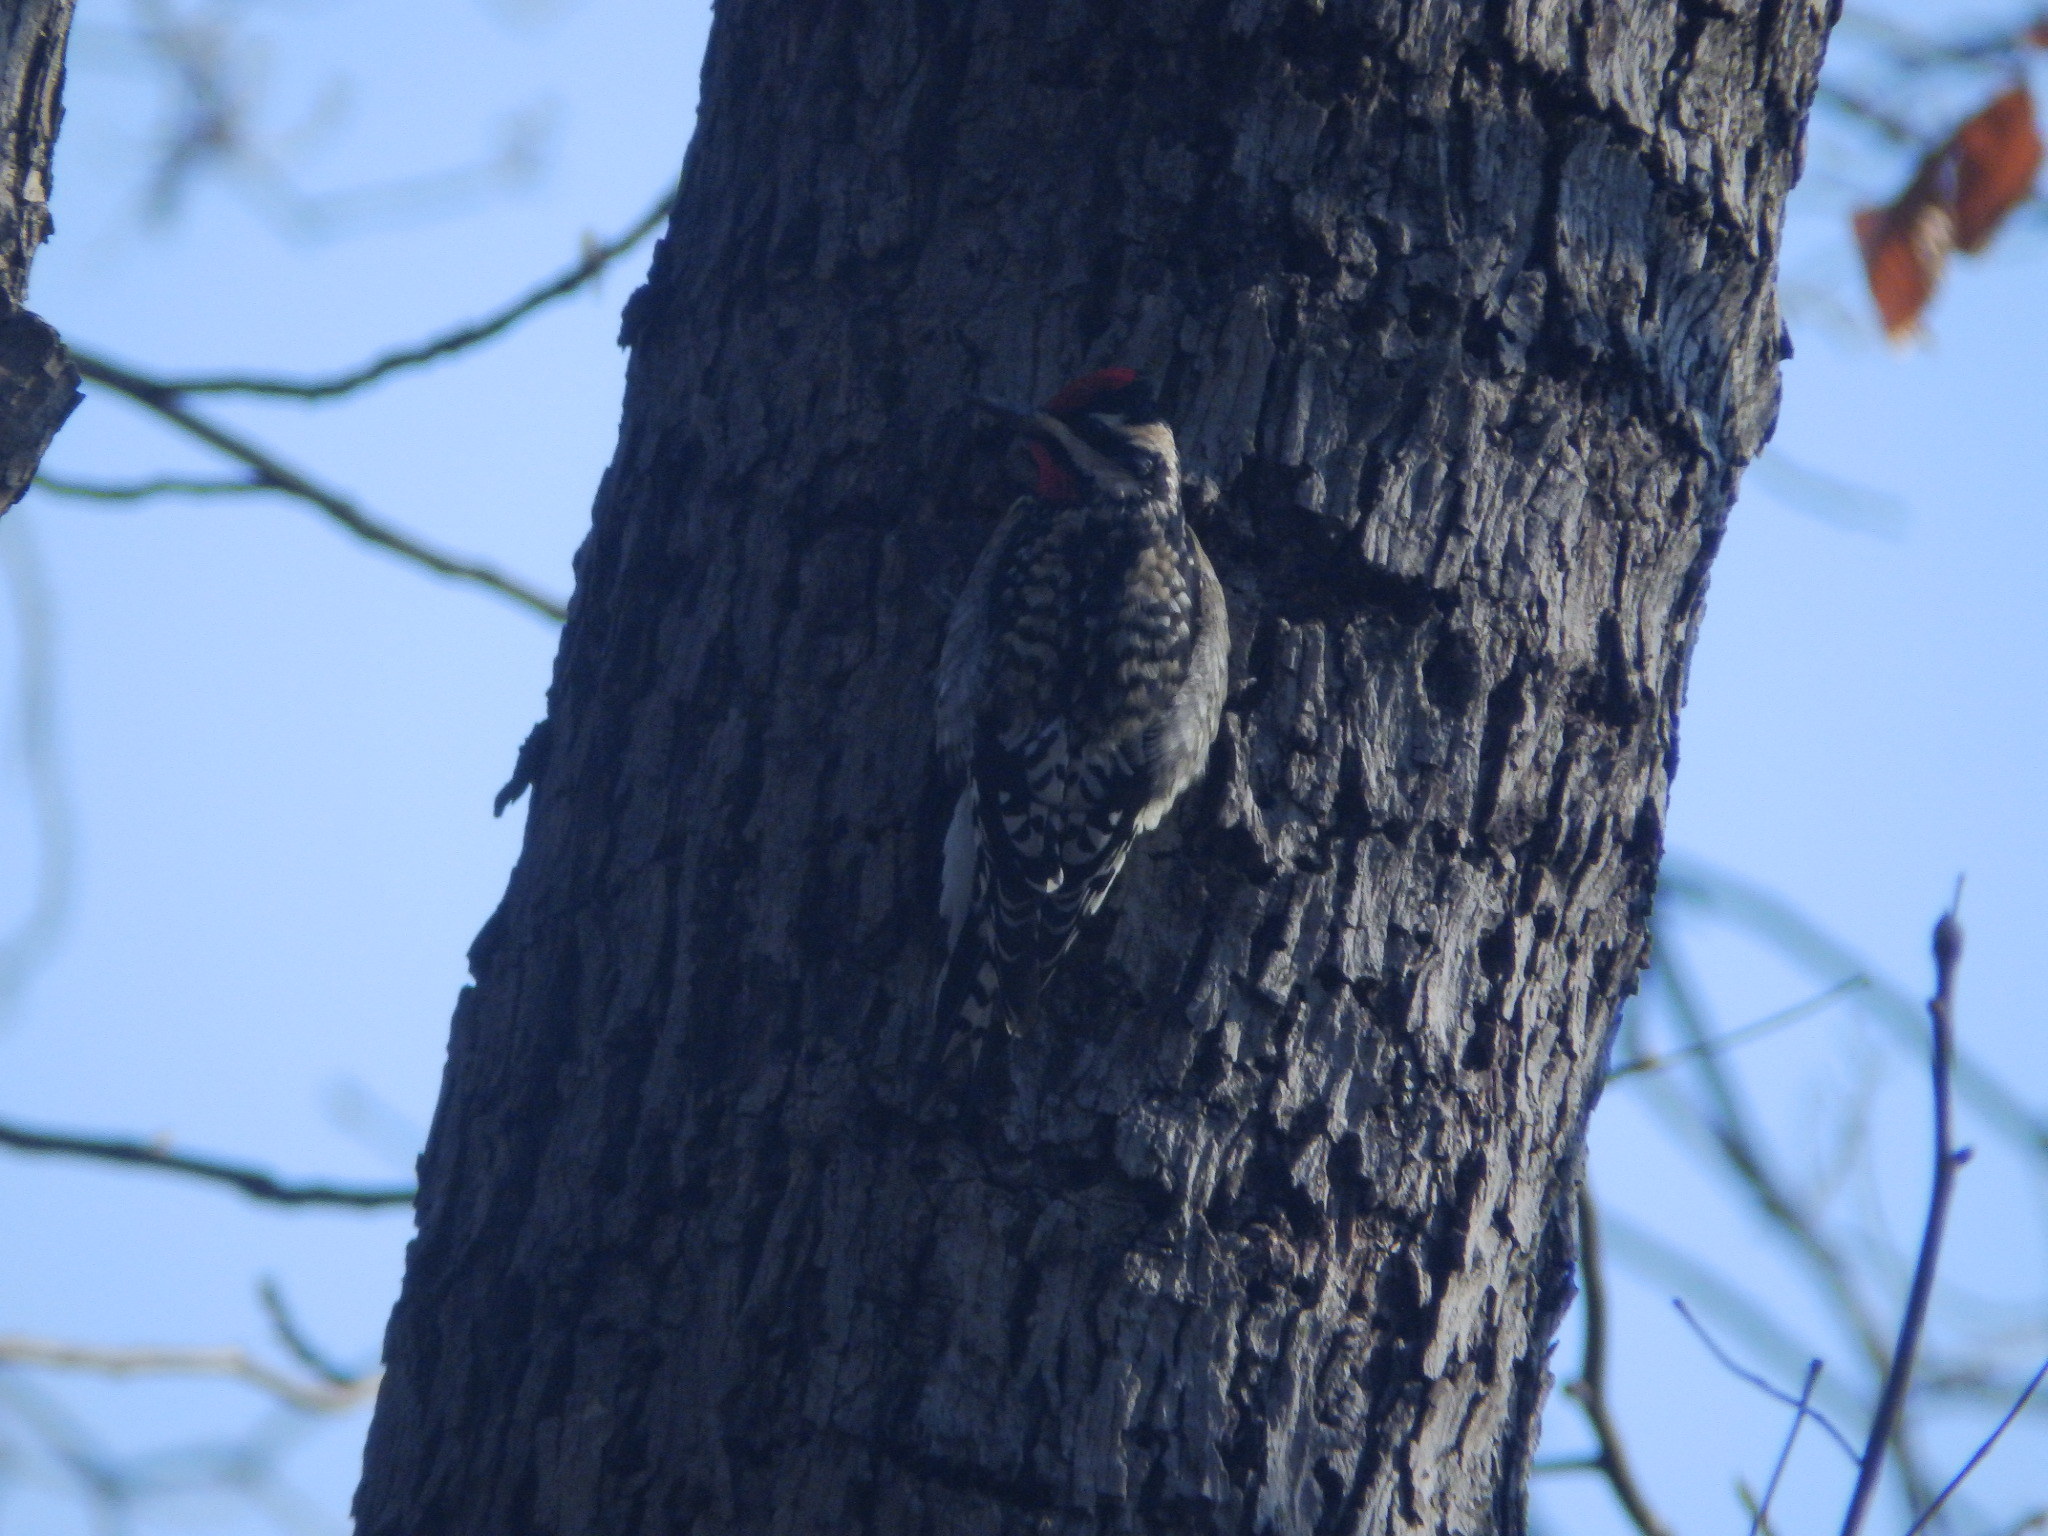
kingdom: Animalia
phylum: Chordata
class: Aves
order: Piciformes
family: Picidae
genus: Sphyrapicus
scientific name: Sphyrapicus varius
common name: Yellow-bellied sapsucker
